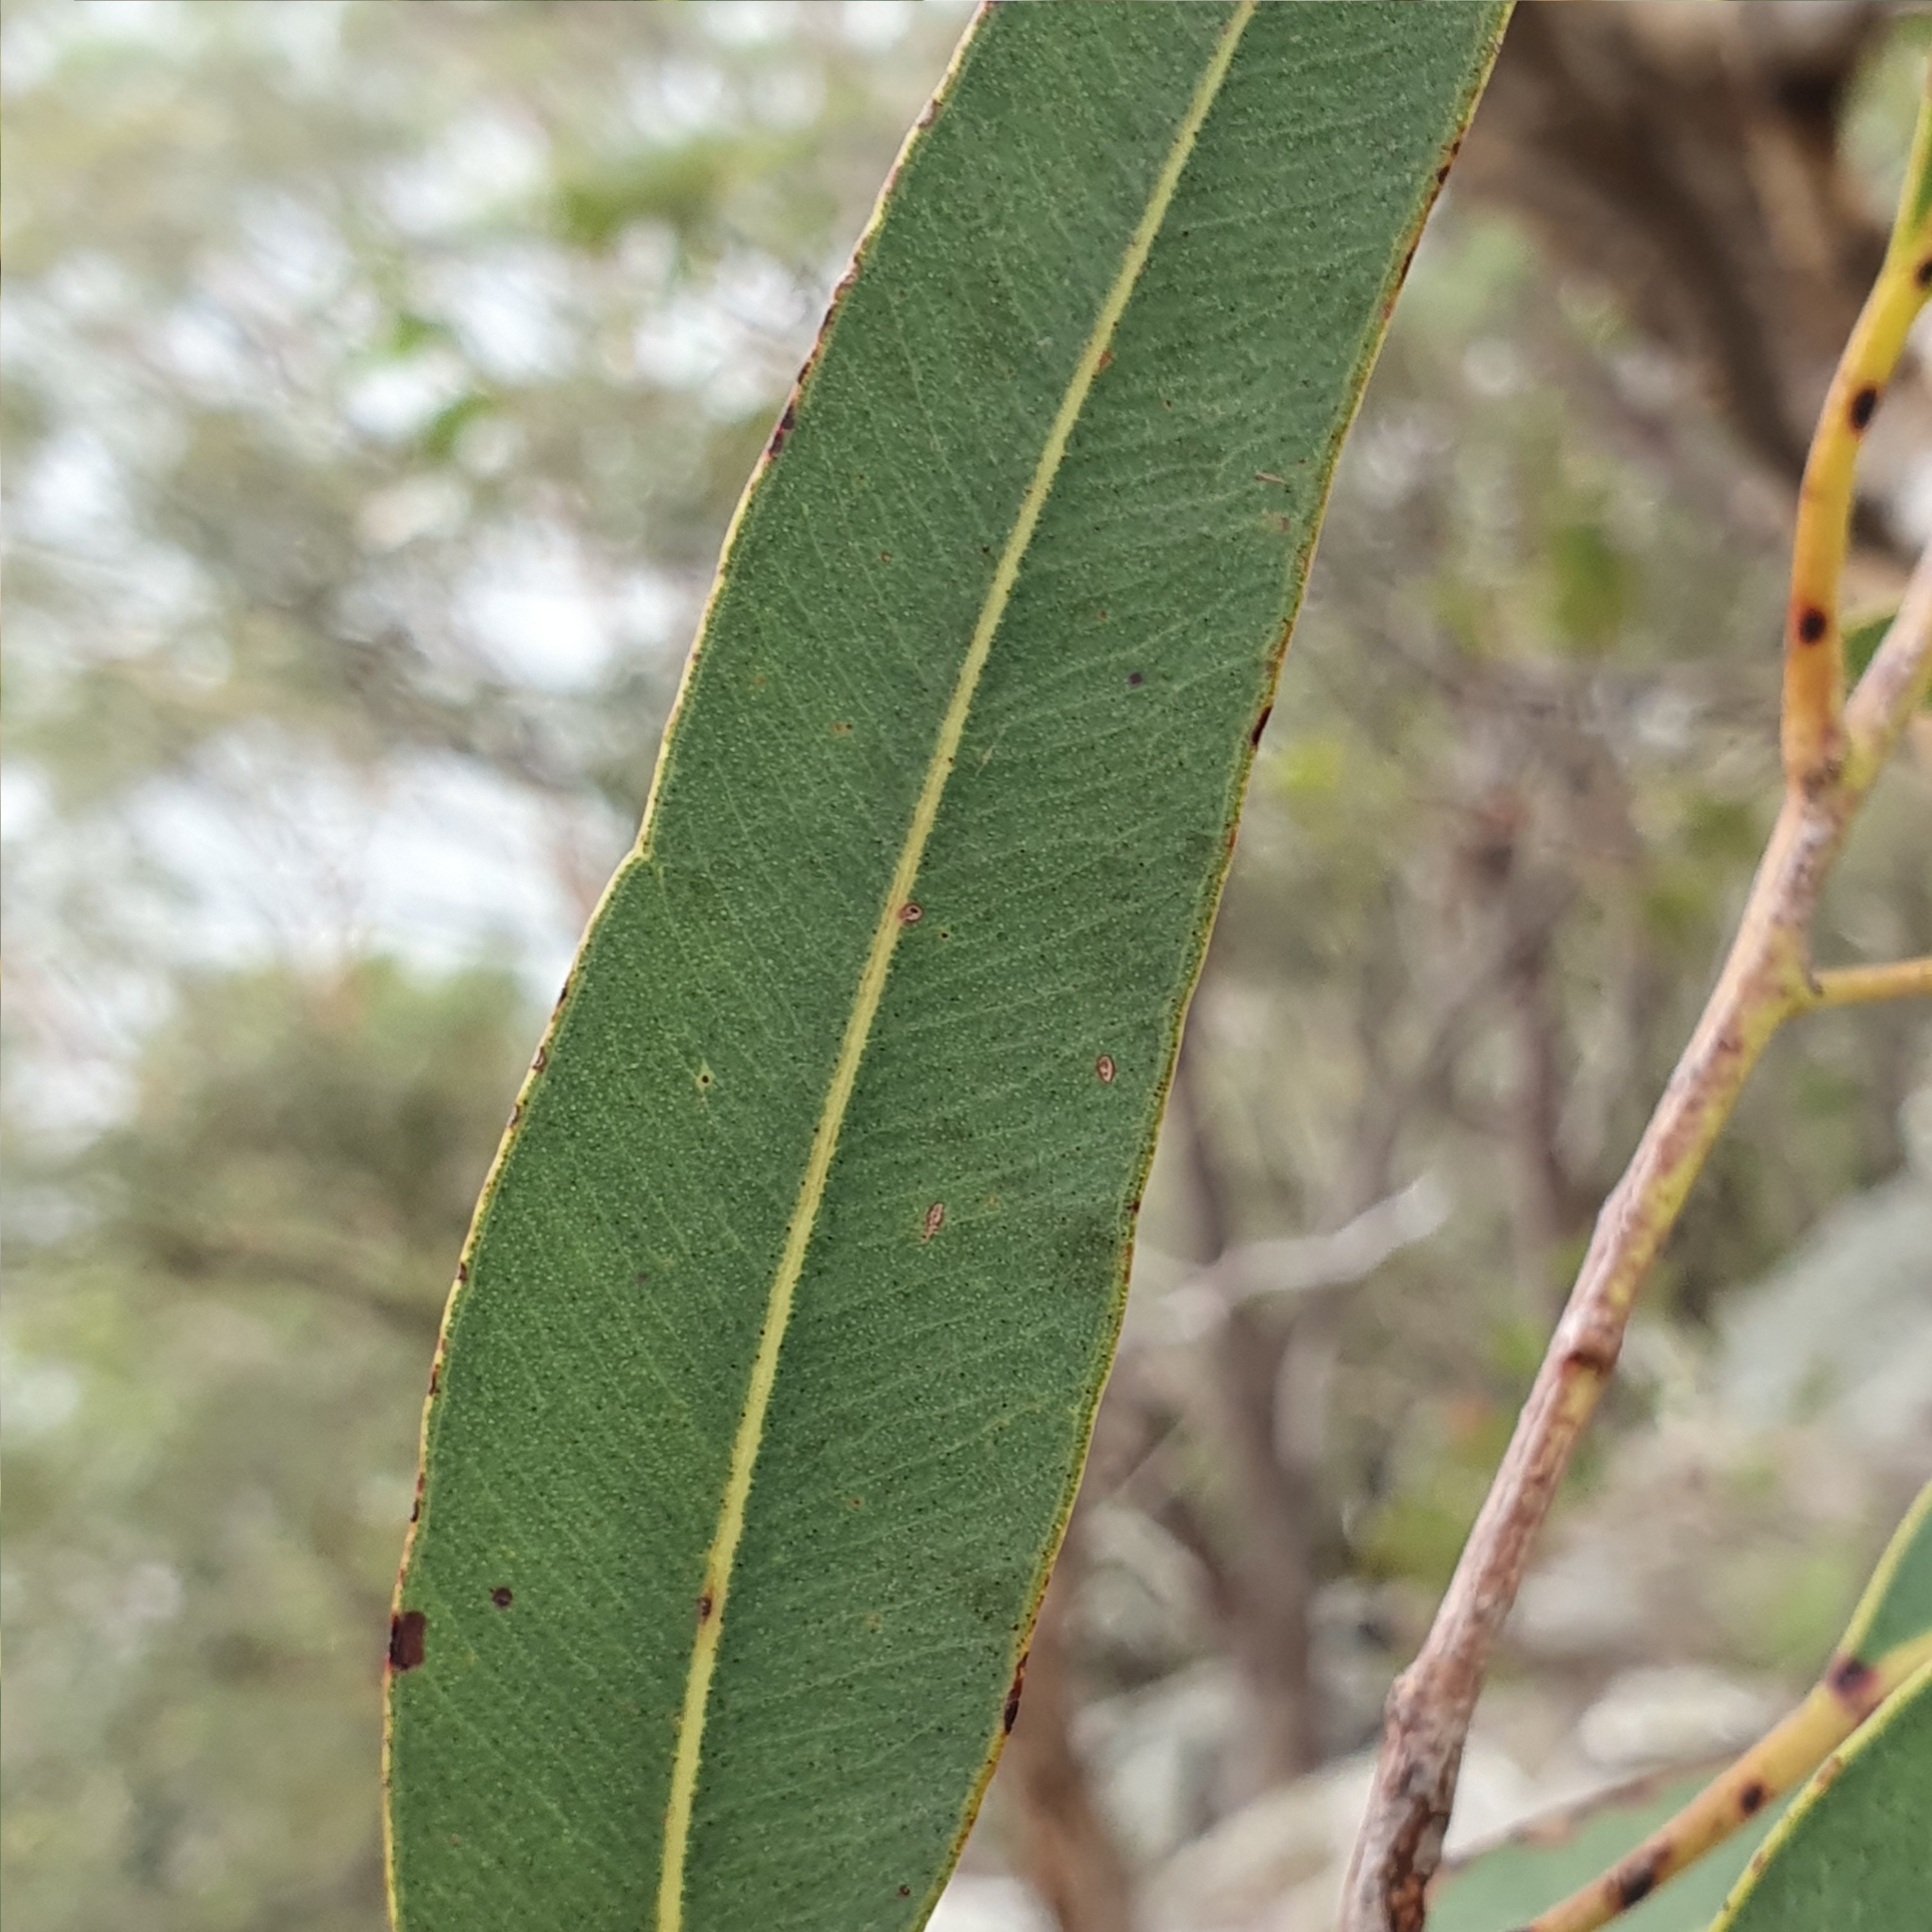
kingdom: Plantae
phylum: Tracheophyta
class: Magnoliopsida
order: Myrtales
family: Myrtaceae
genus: Corymbia
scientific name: Corymbia eximia
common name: Yellow bloodwood
